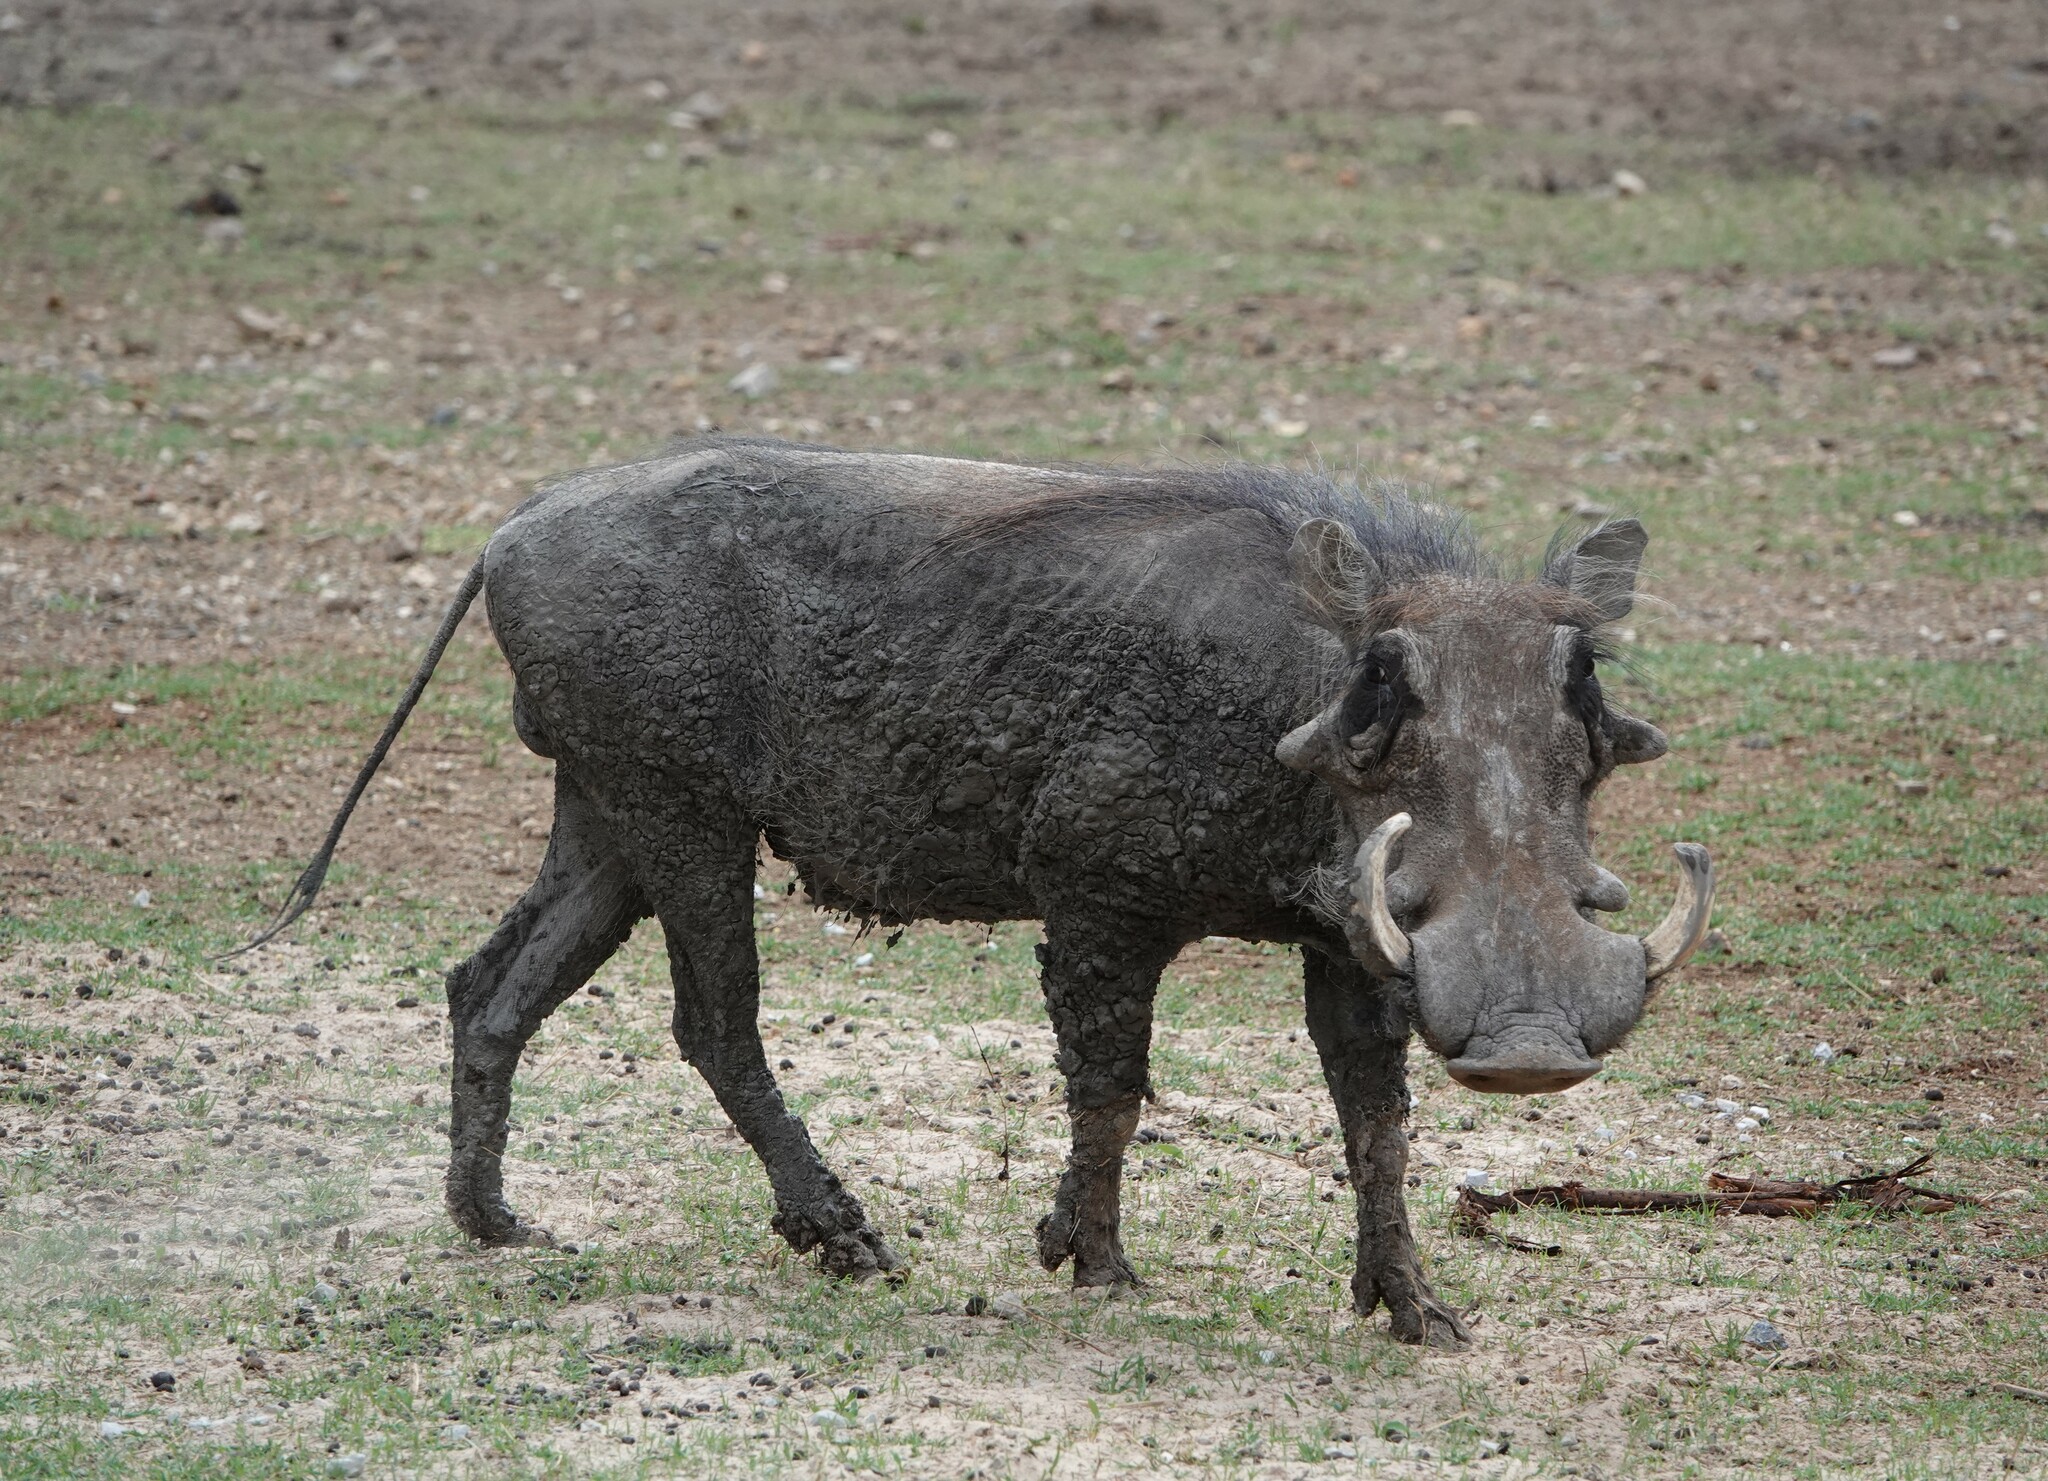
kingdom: Animalia
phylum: Chordata
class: Mammalia
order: Artiodactyla
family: Suidae
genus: Phacochoerus
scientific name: Phacochoerus africanus
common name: Common warthog
